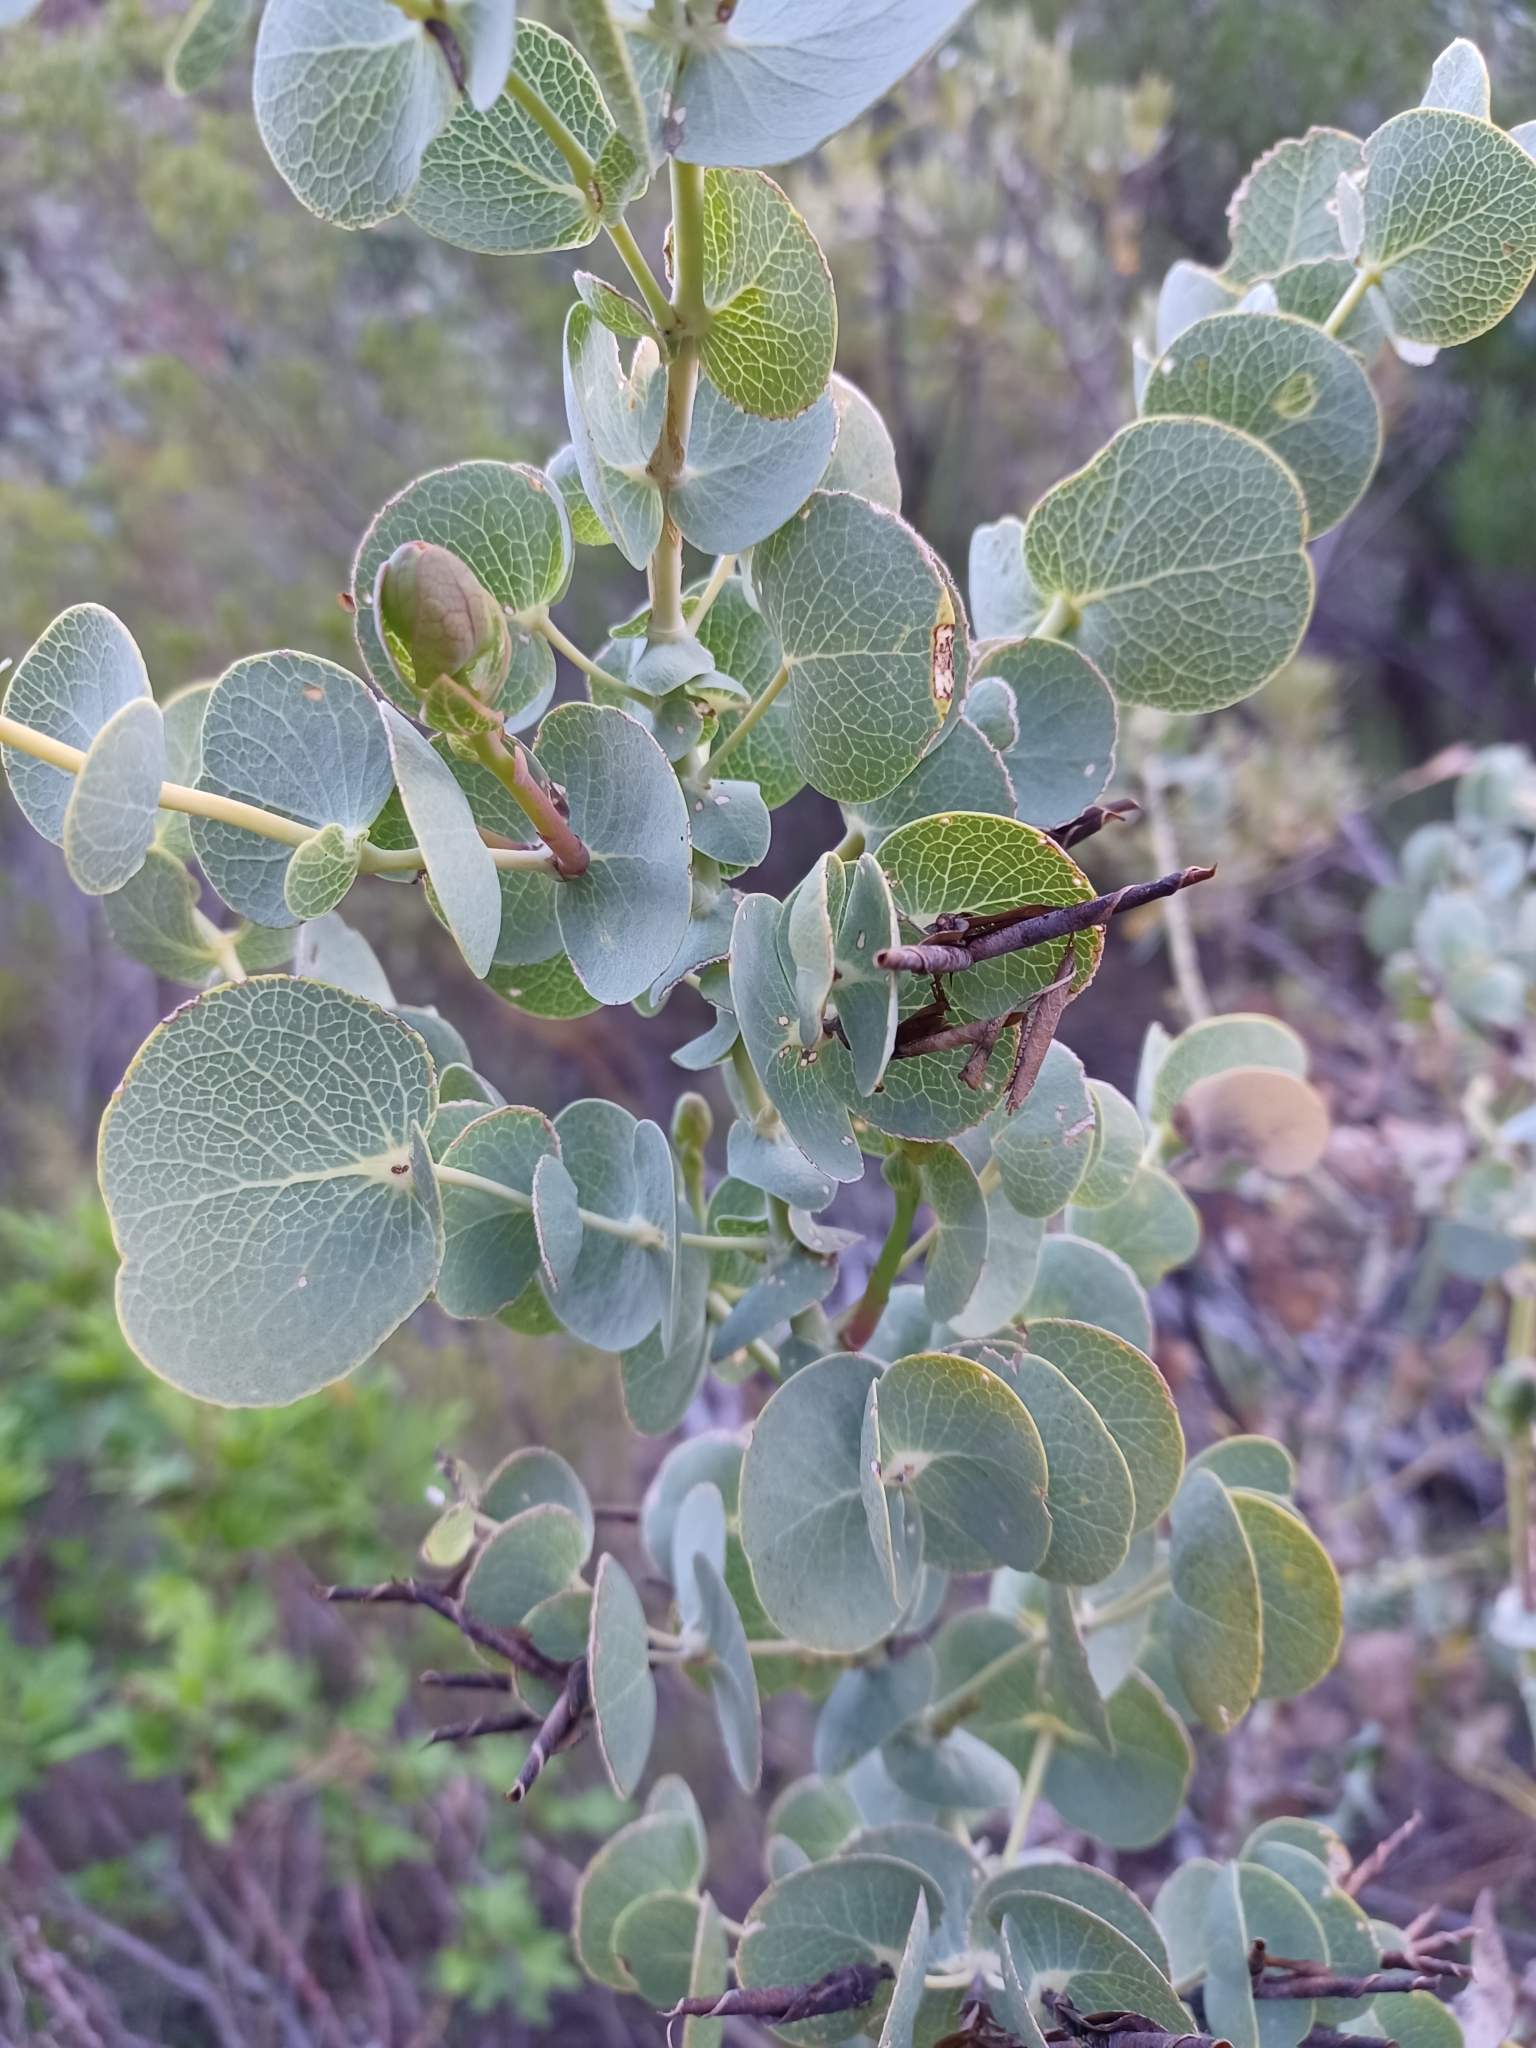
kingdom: Plantae
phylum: Tracheophyta
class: Magnoliopsida
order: Fabales
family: Fabaceae
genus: Rafnia
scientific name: Rafnia amplexicaulis
